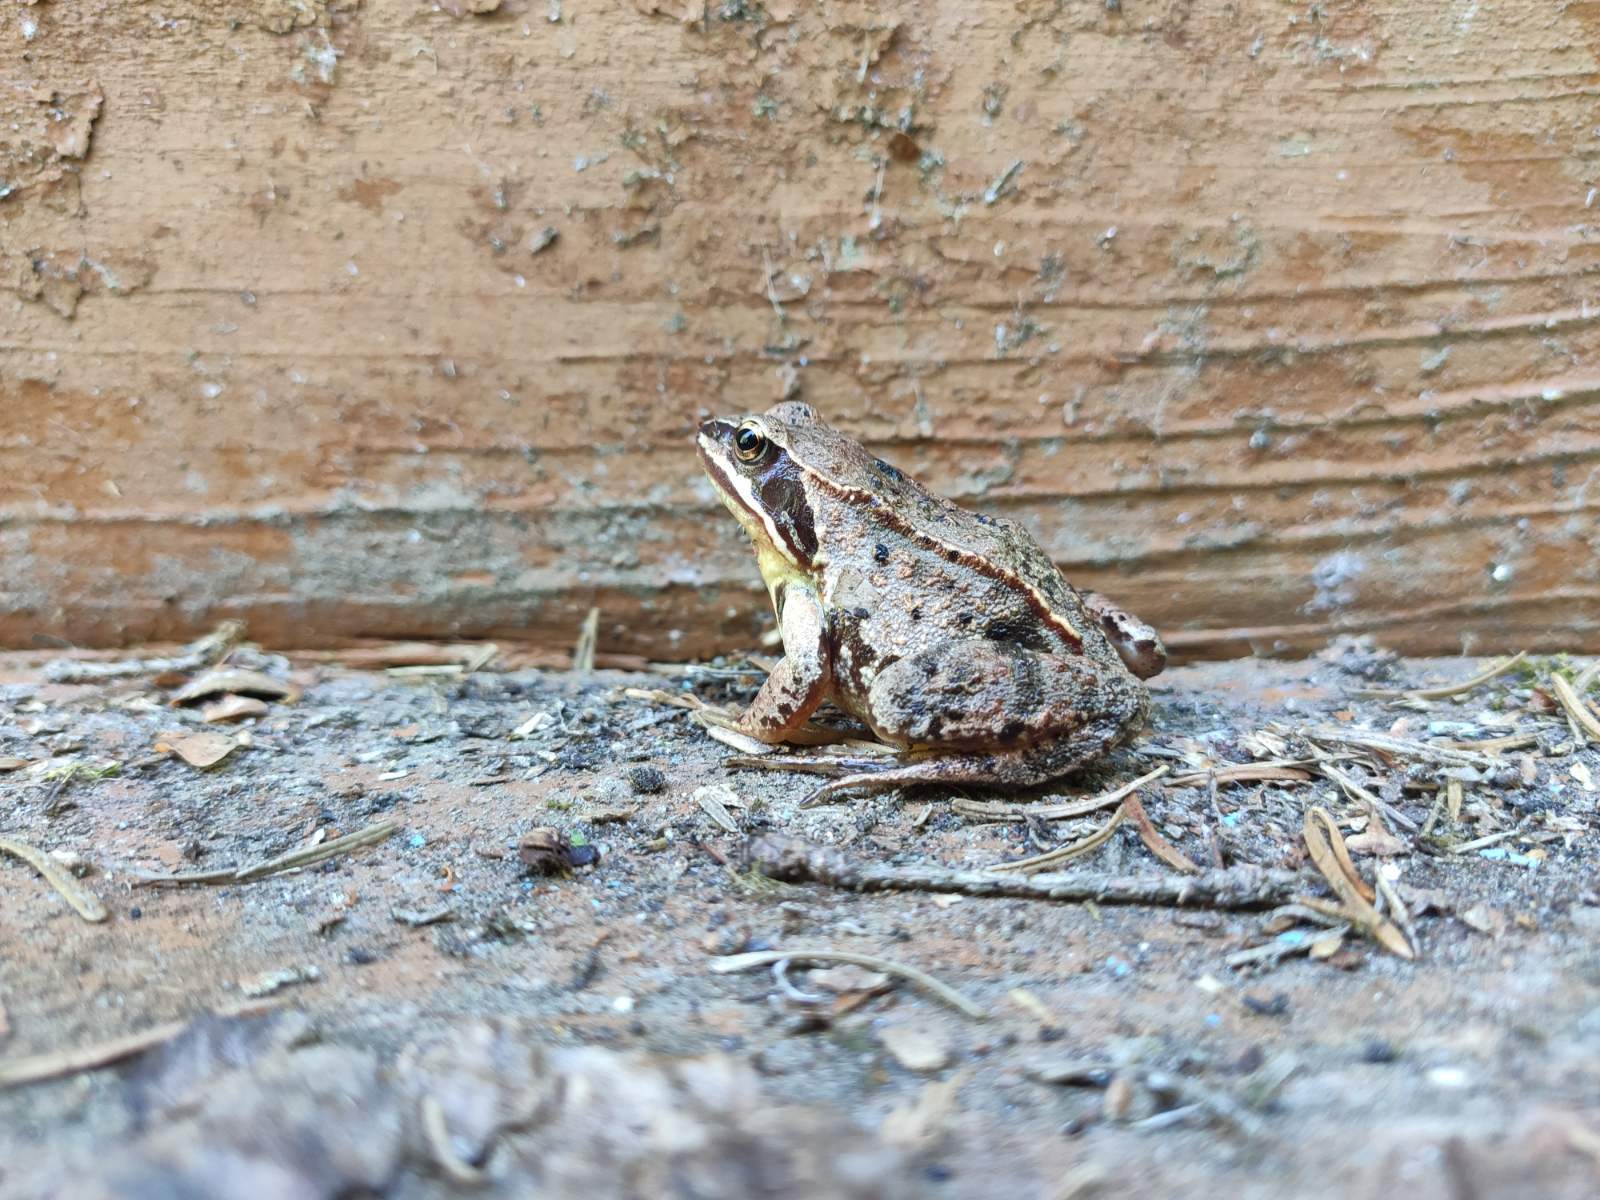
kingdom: Animalia
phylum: Chordata
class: Amphibia
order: Anura
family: Ranidae
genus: Rana
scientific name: Rana arvalis
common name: Moor frog
